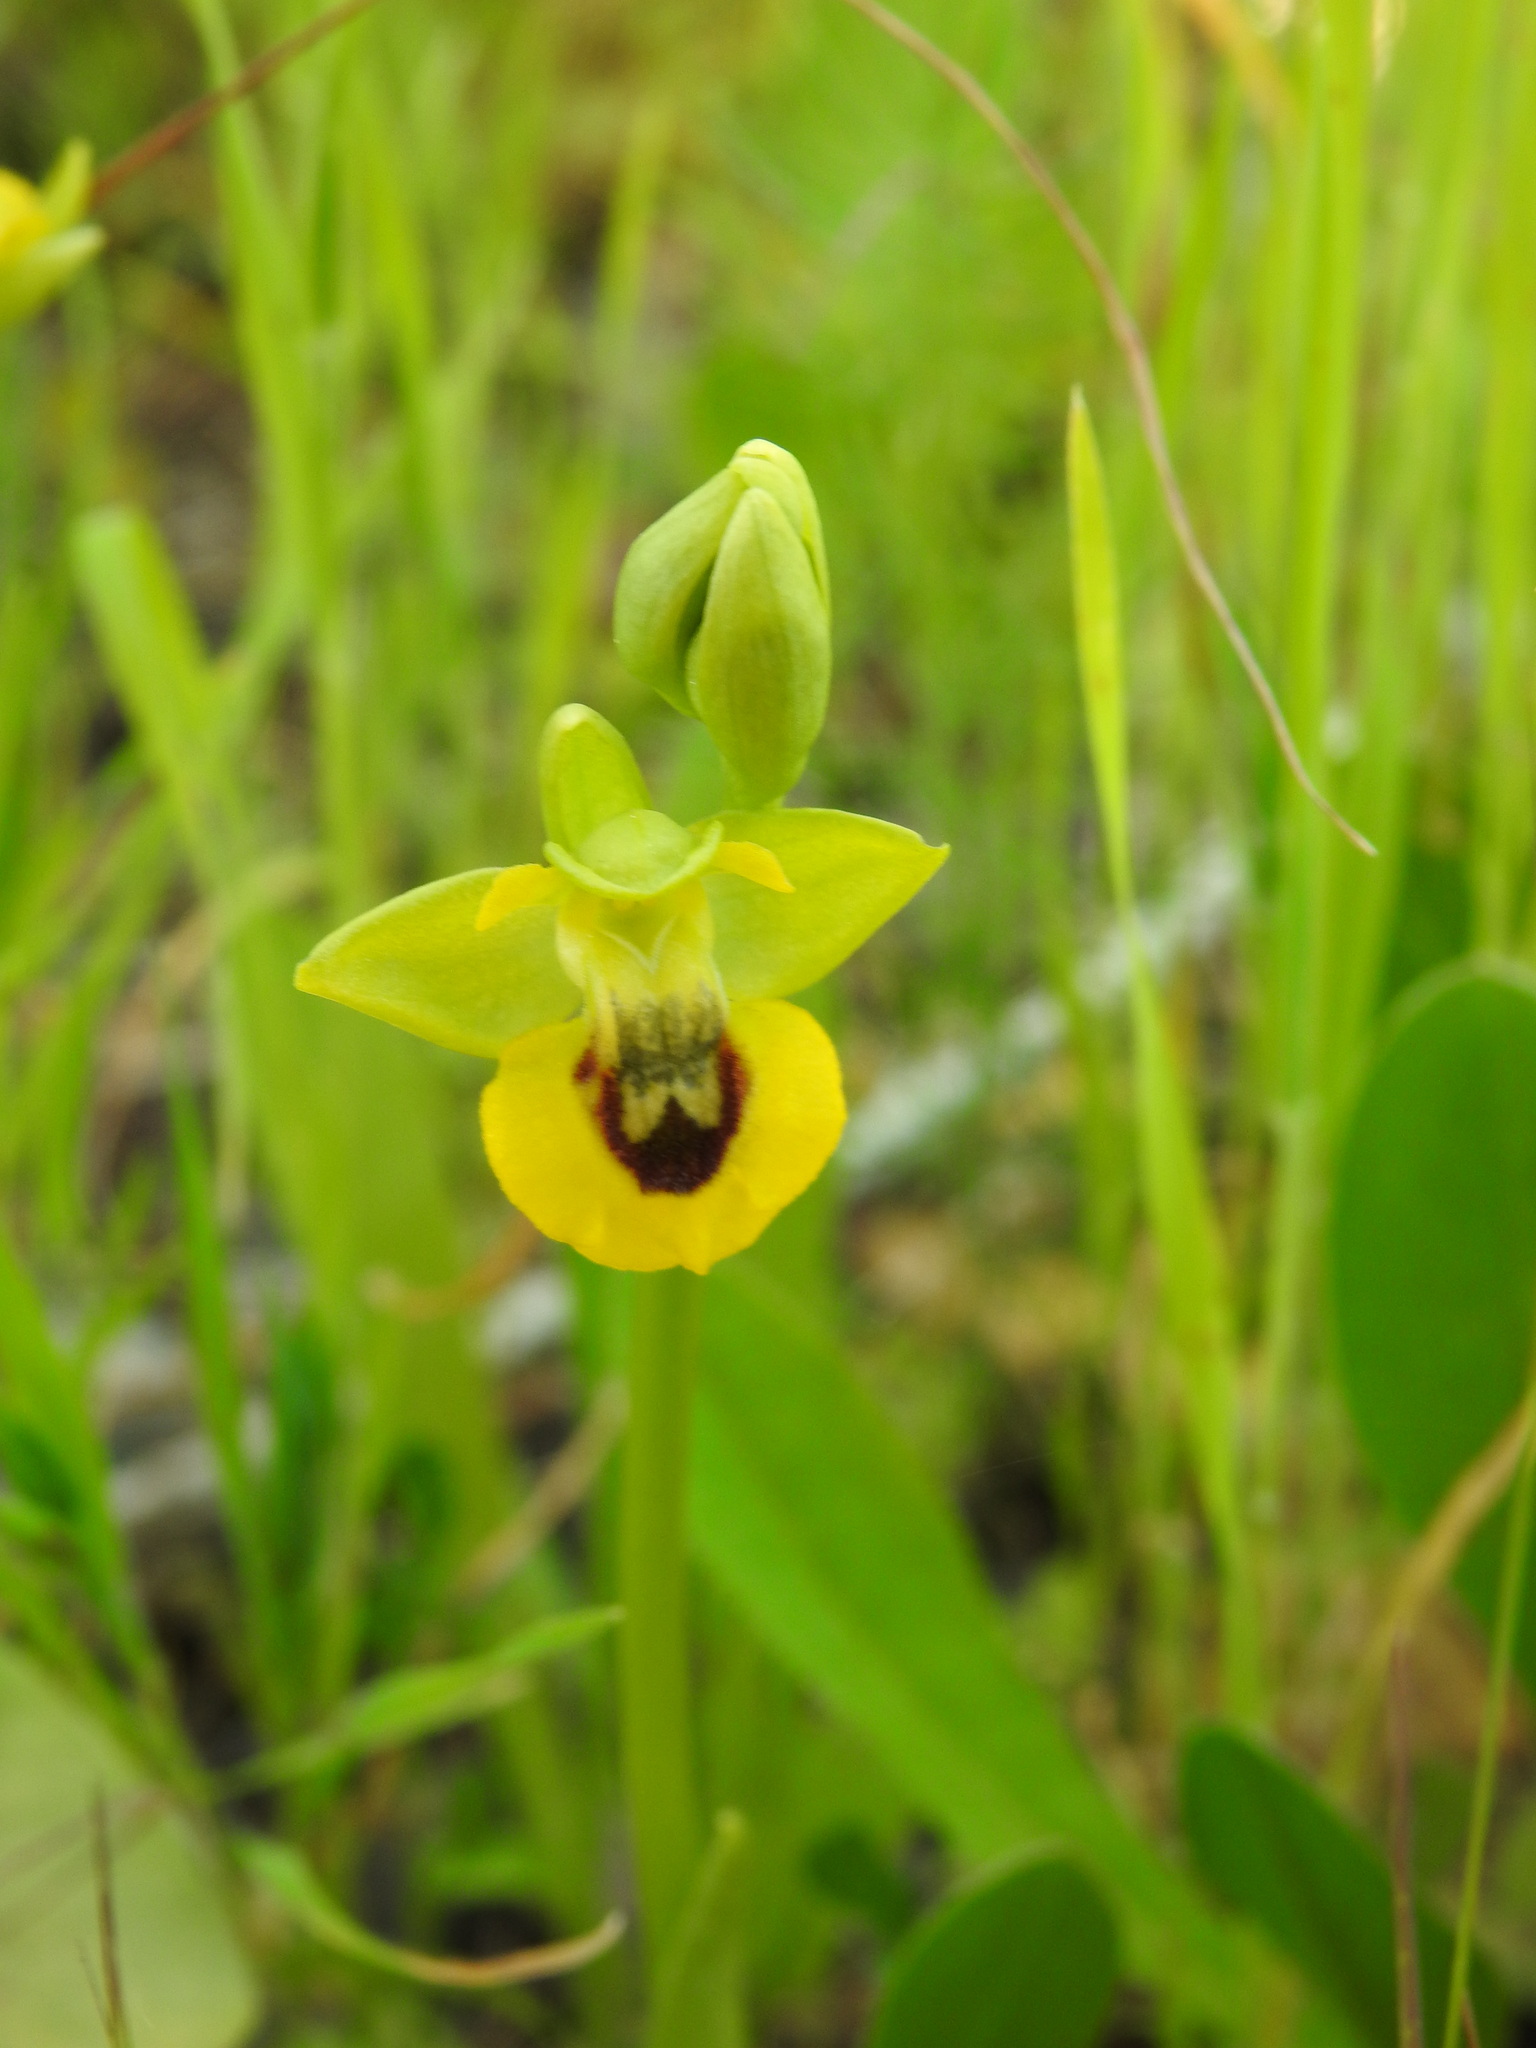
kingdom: Plantae
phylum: Tracheophyta
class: Liliopsida
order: Asparagales
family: Orchidaceae
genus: Ophrys
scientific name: Ophrys lutea
